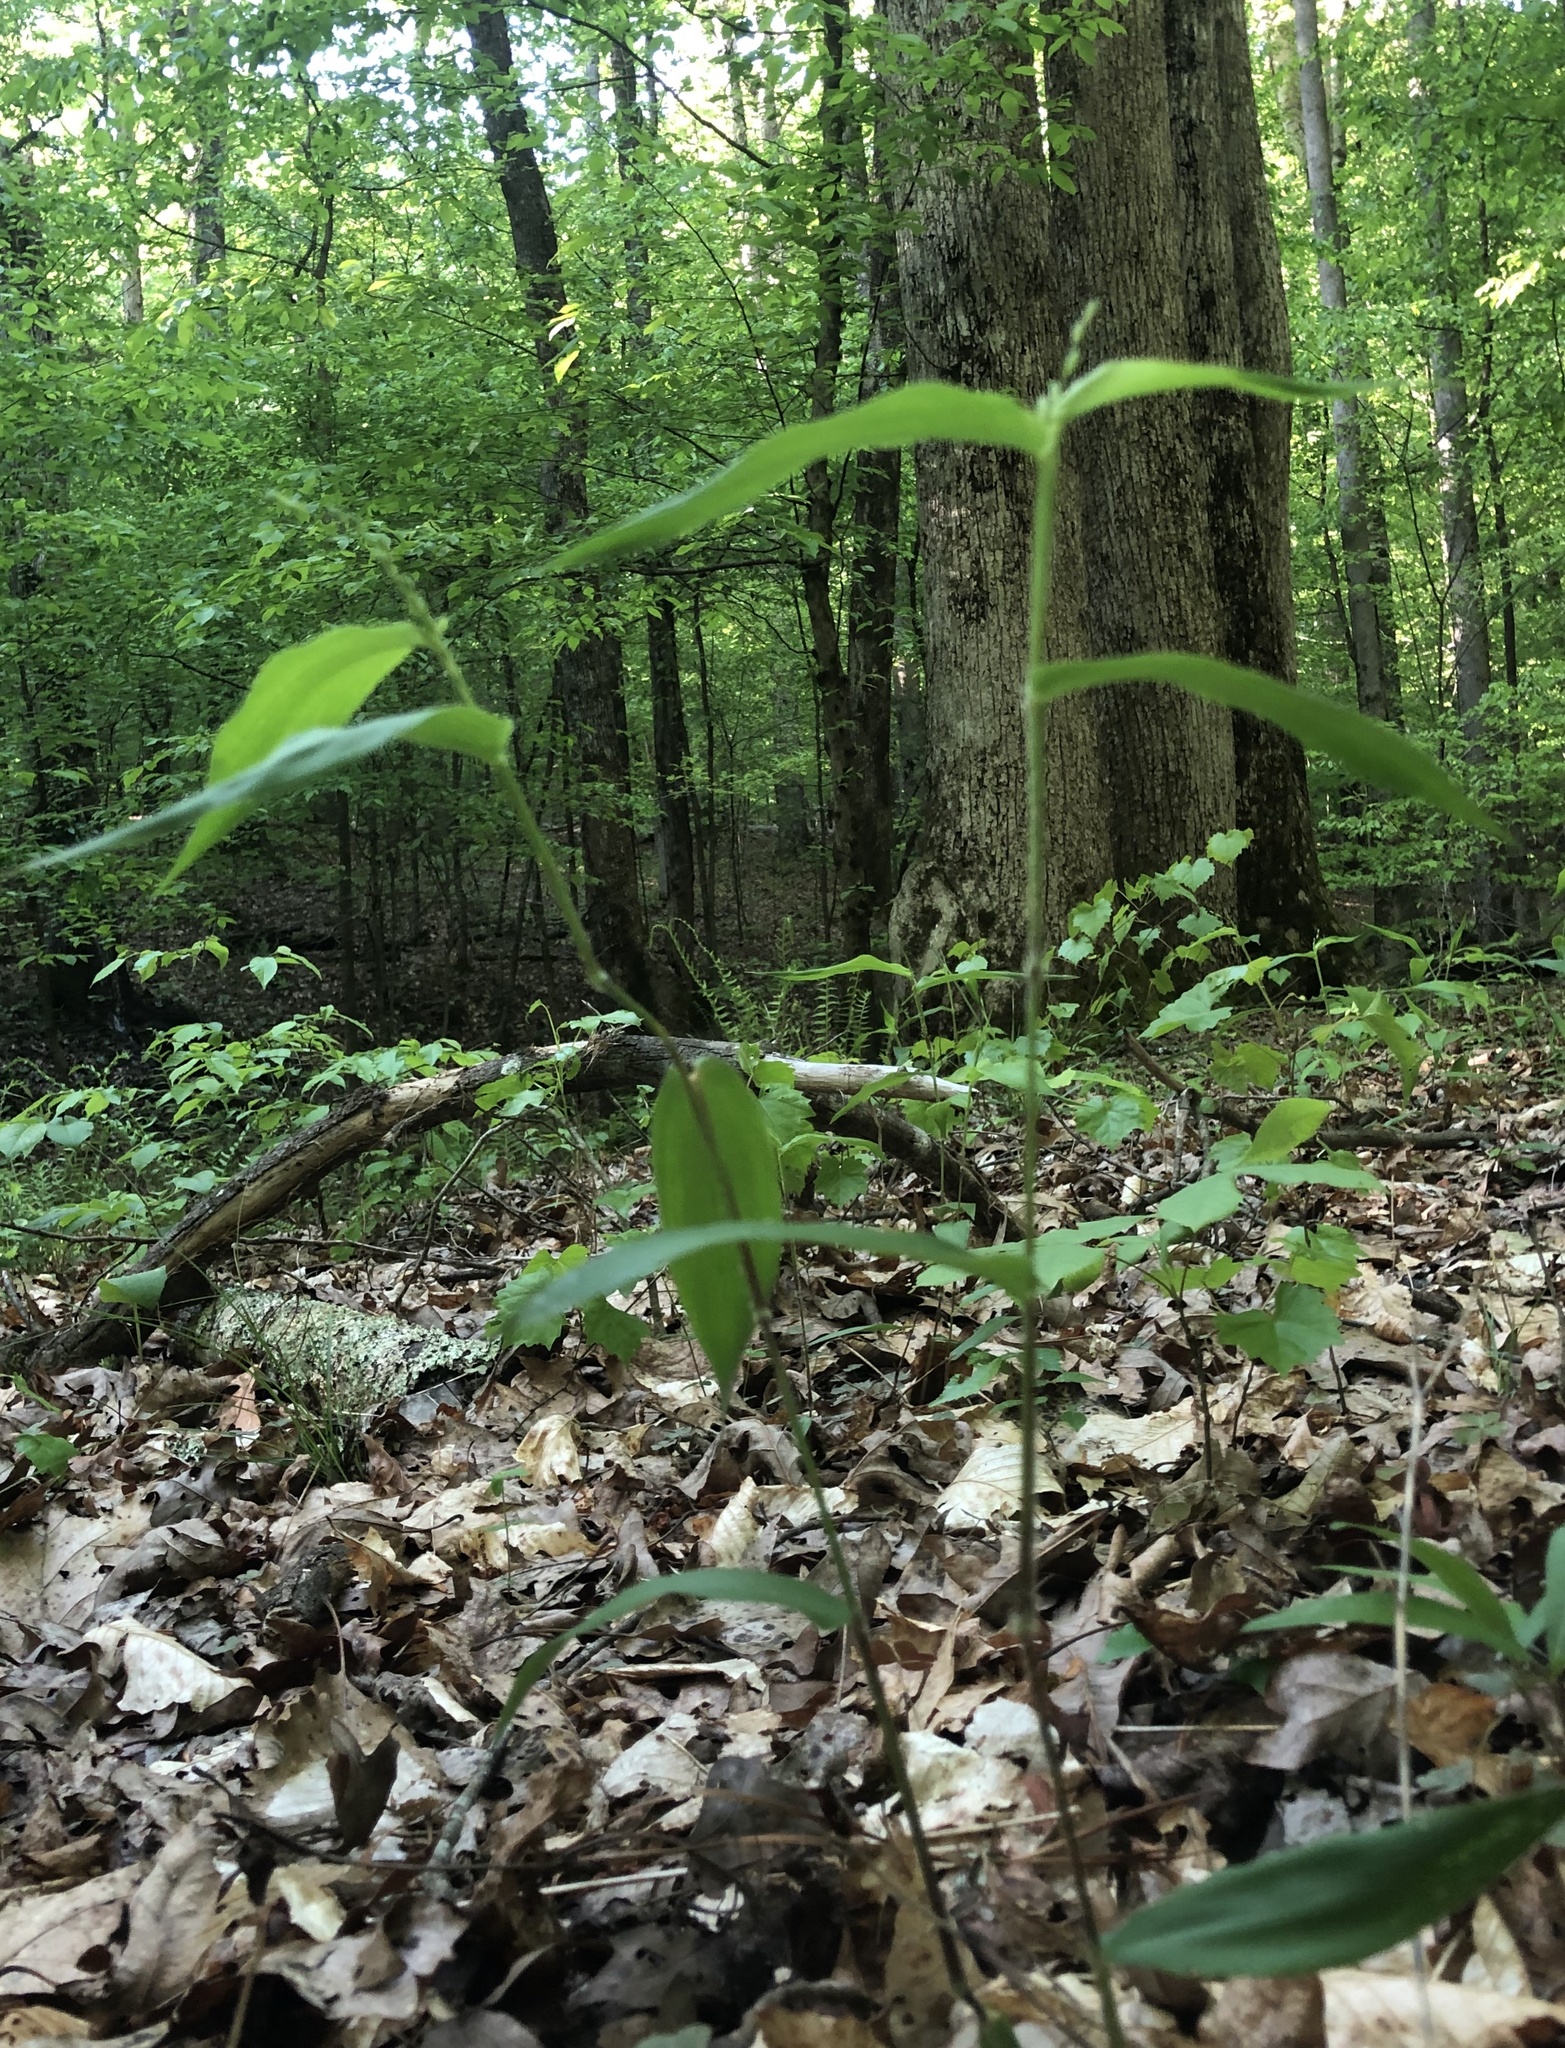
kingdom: Plantae
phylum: Tracheophyta
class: Liliopsida
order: Poales
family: Poaceae
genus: Dichanthelium
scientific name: Dichanthelium latifolium
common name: Broad-leaved panicgrass
